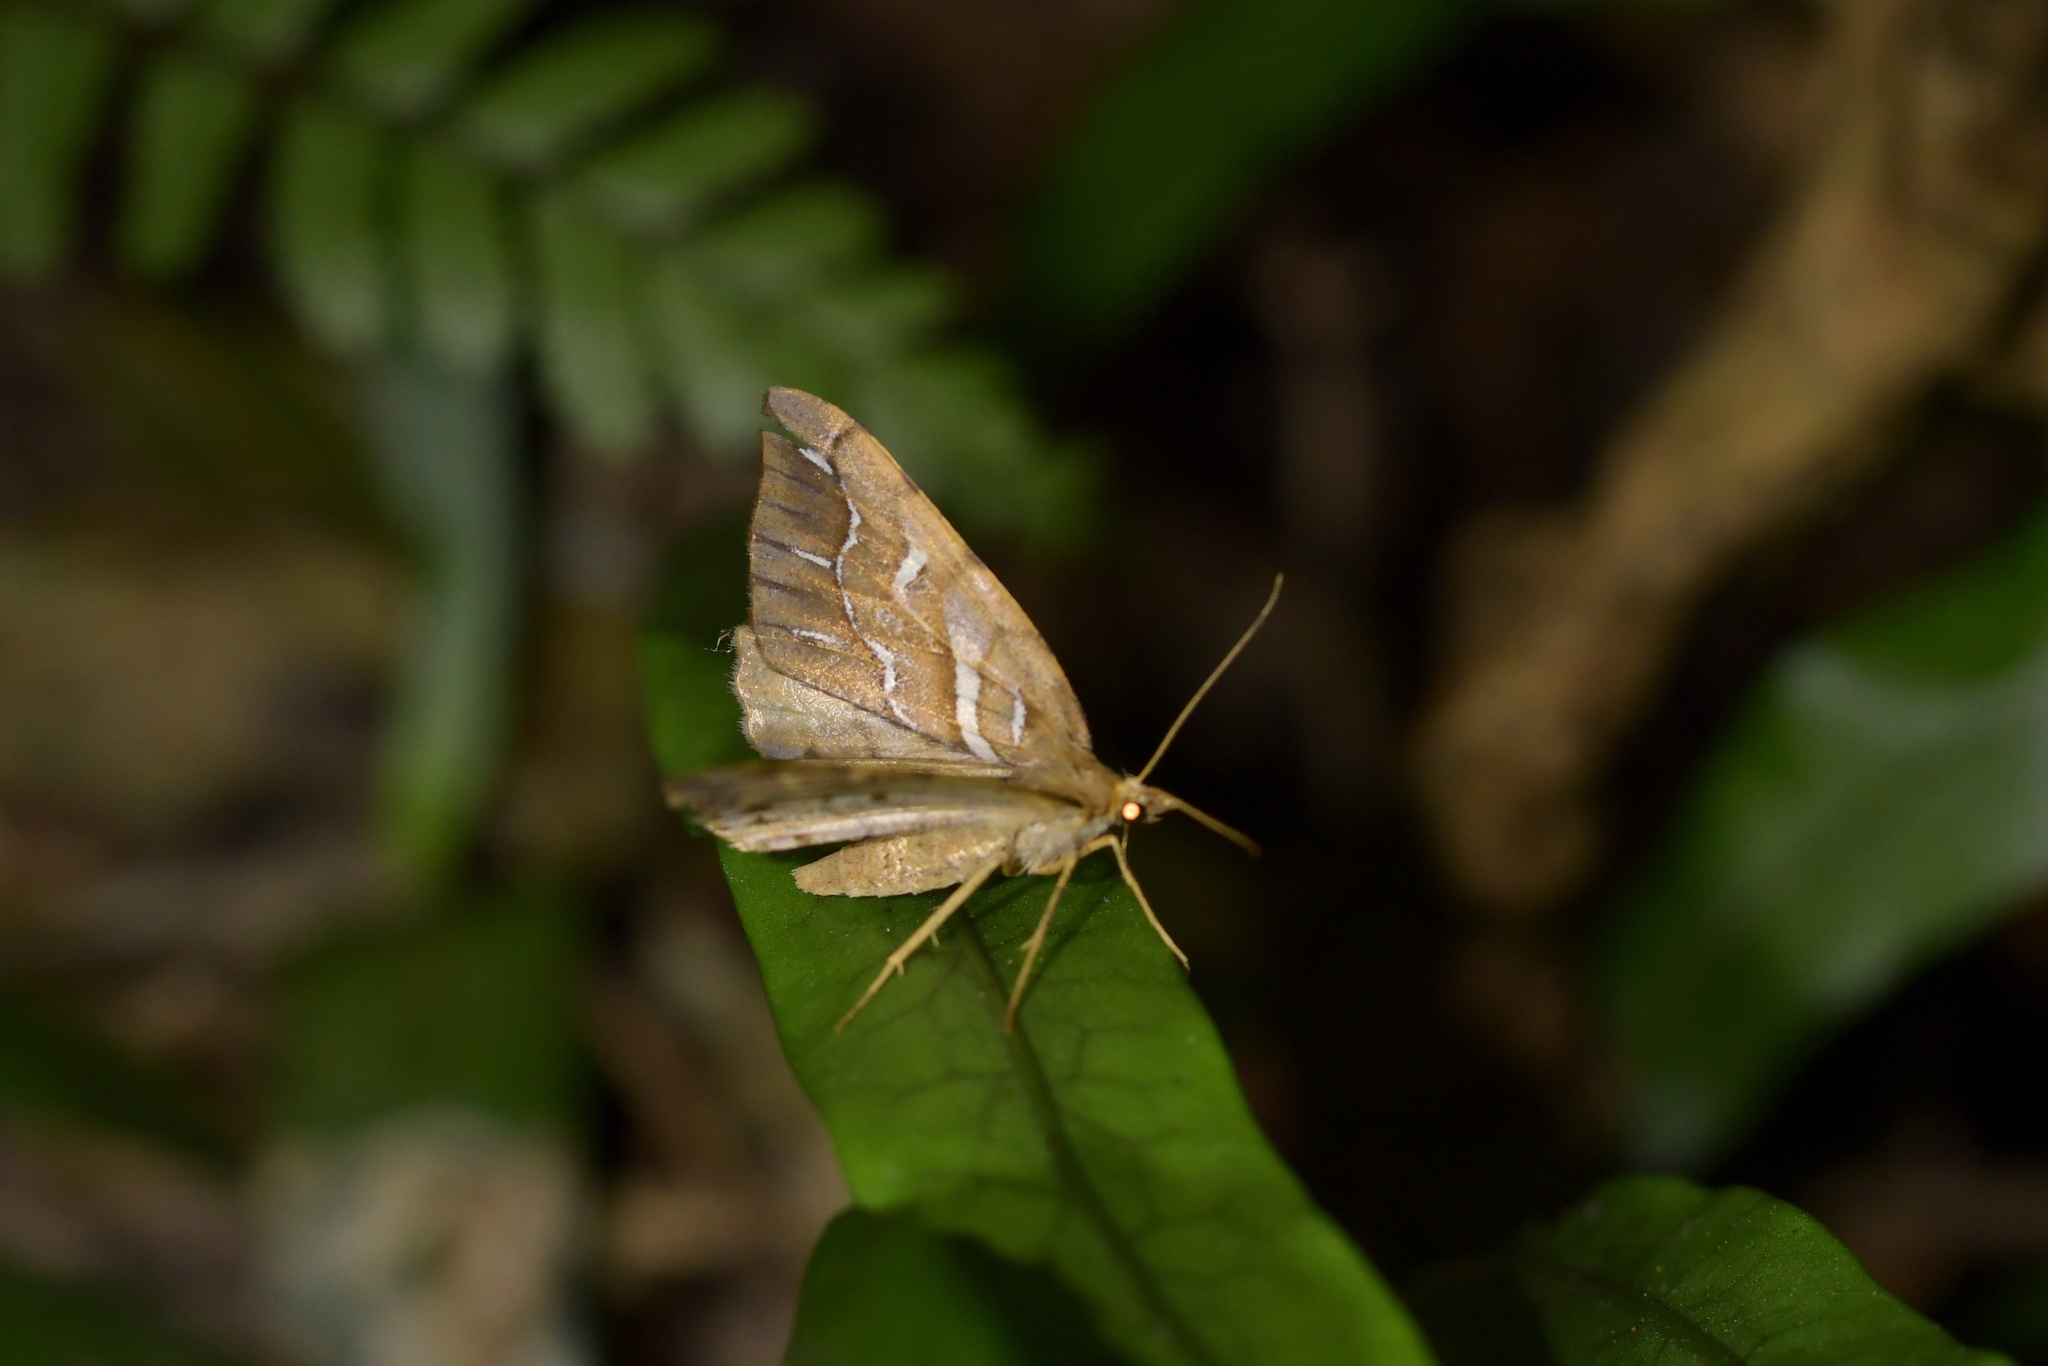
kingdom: Animalia
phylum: Arthropoda
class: Insecta
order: Lepidoptera
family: Geometridae
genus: Chalastra
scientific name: Chalastra aristarcha
